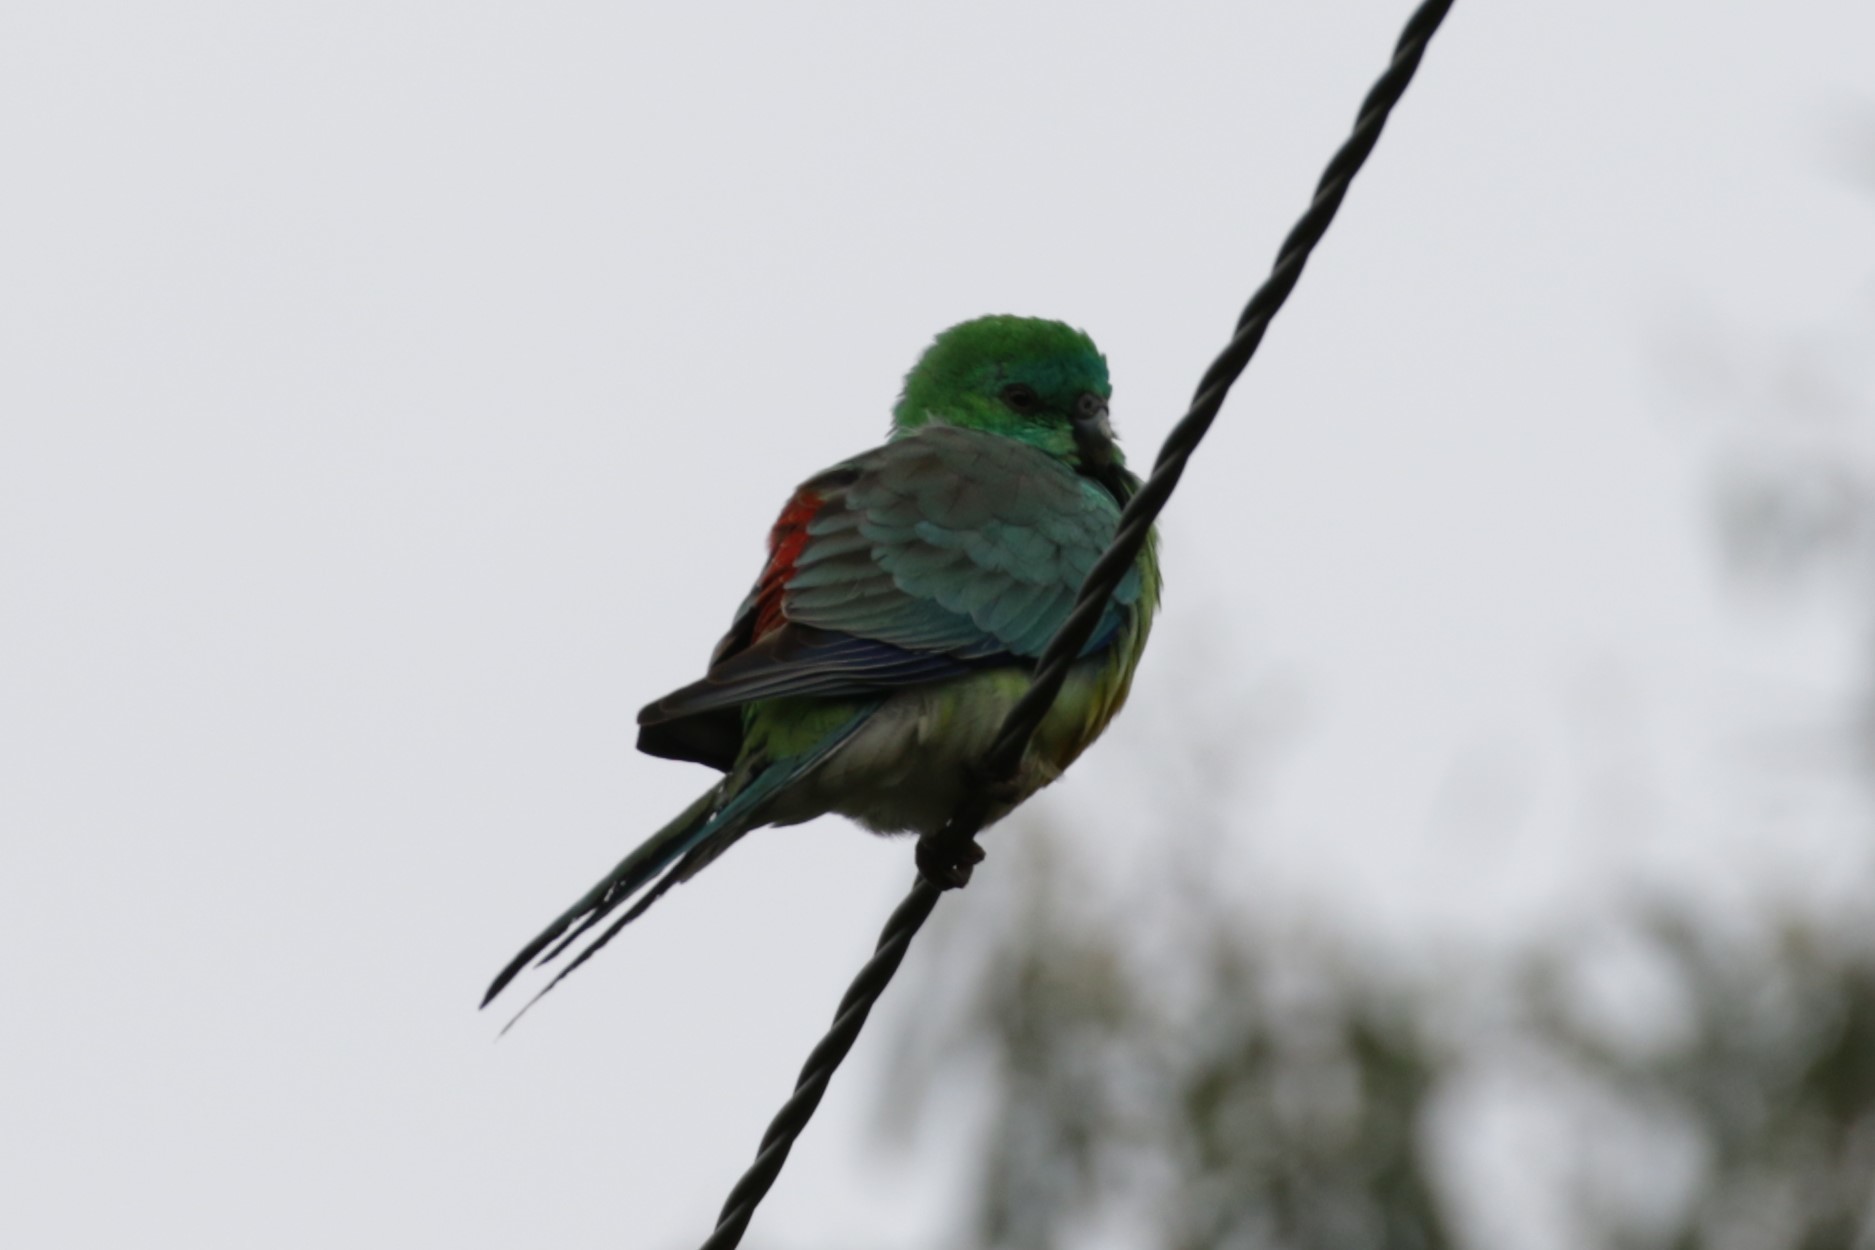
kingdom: Animalia
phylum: Chordata
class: Aves
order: Psittaciformes
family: Psittacidae
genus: Psephotus
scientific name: Psephotus haematonotus
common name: Red-rumped parrot
